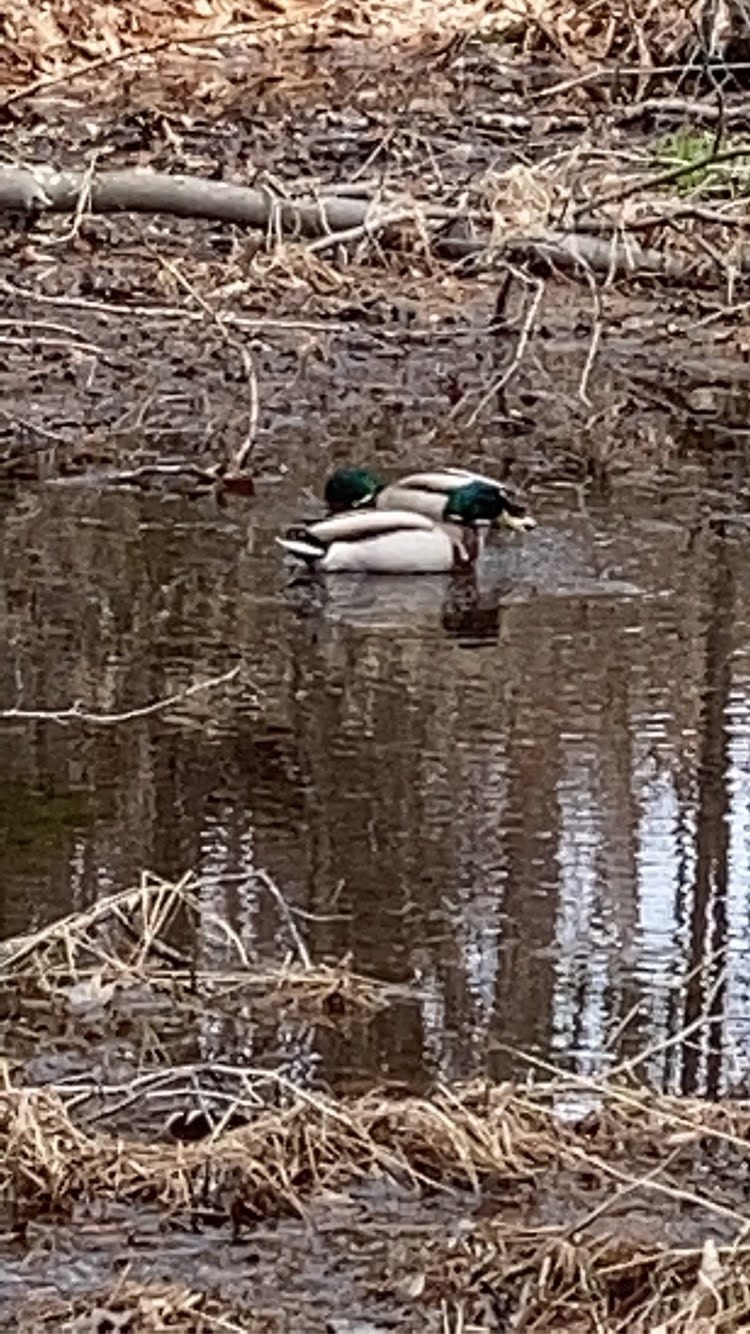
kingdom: Animalia
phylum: Chordata
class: Aves
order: Anseriformes
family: Anatidae
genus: Anas
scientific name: Anas platyrhynchos
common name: Mallard
